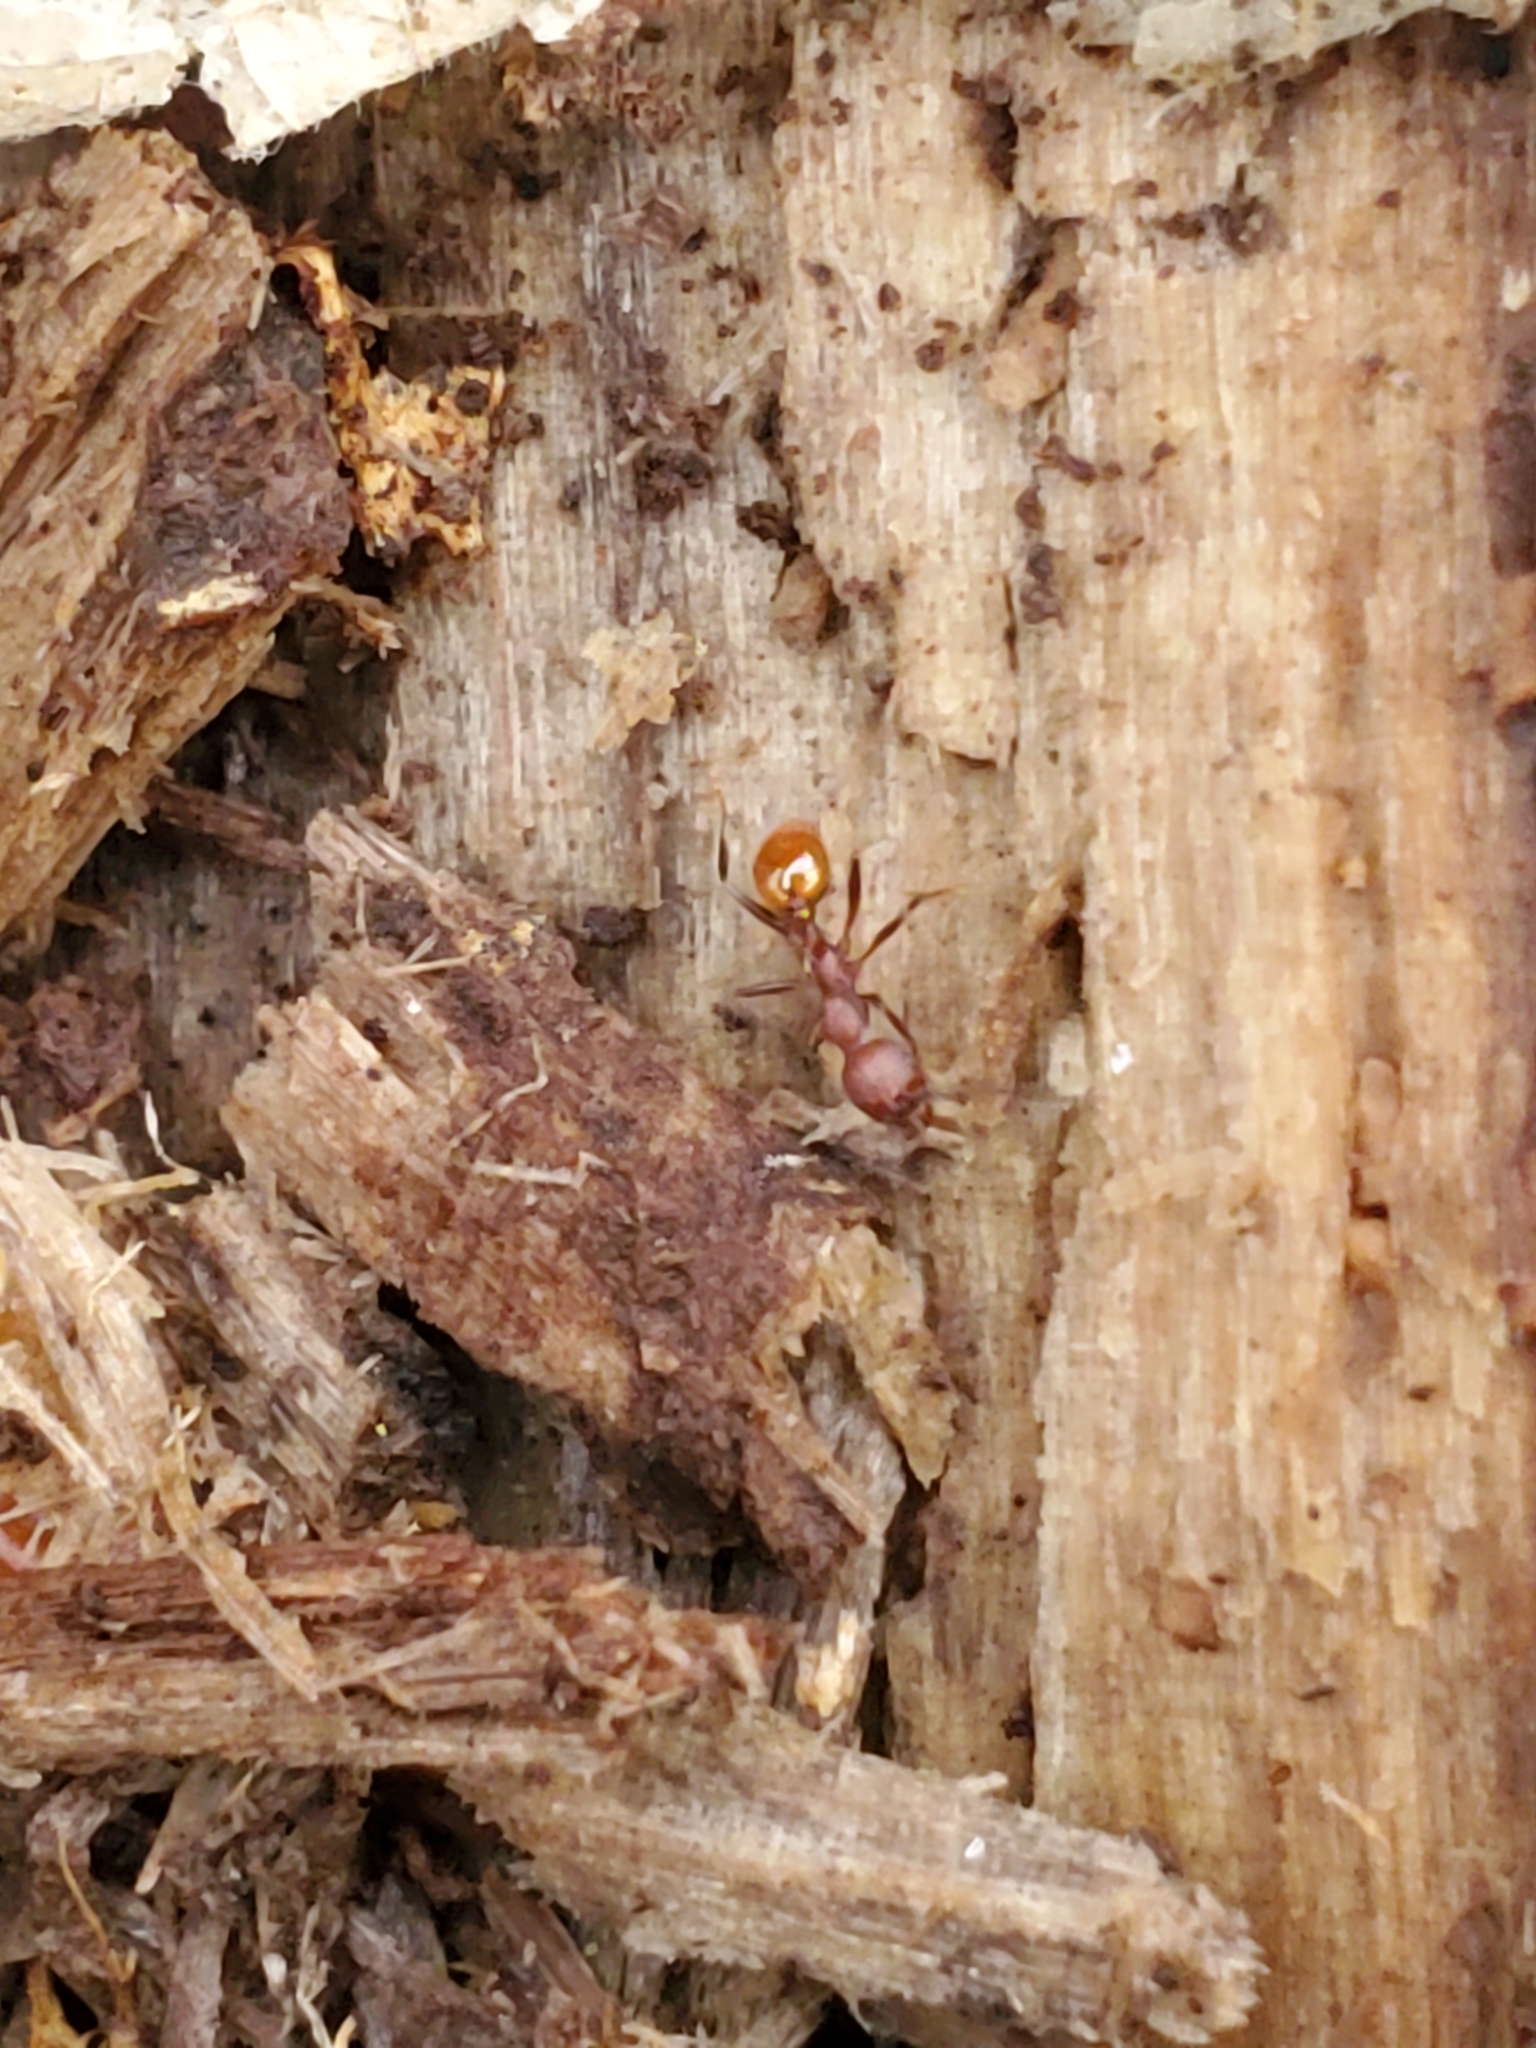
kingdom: Animalia
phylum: Arthropoda
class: Insecta
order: Hymenoptera
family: Formicidae
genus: Aphaenogaster
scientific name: Aphaenogaster tennesseensis
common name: Tennessee thread-waisted ant
